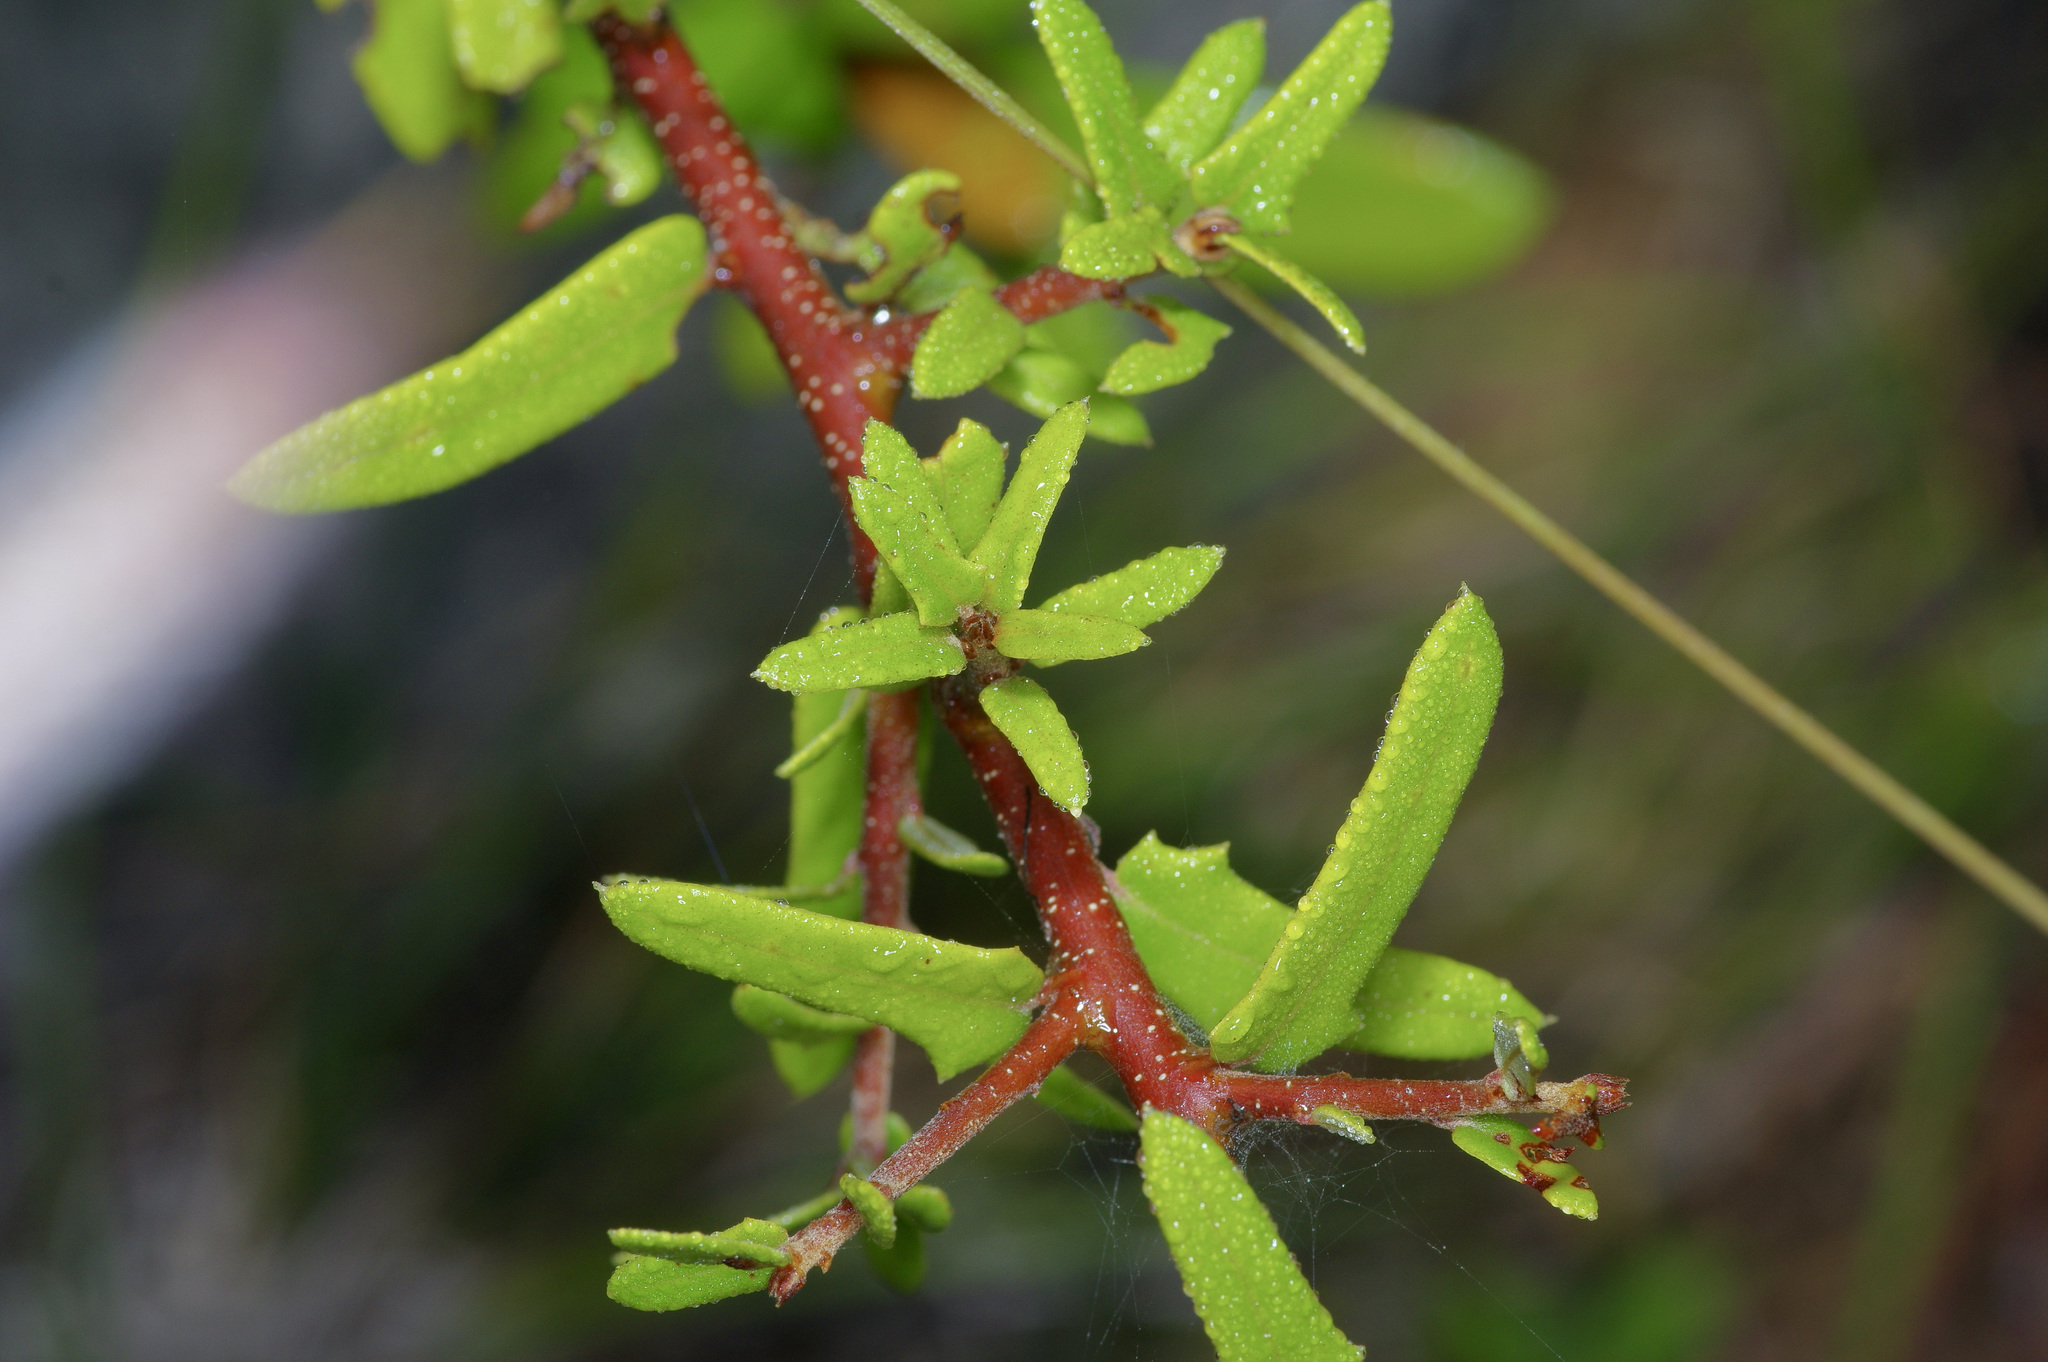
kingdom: Plantae
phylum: Tracheophyta
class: Magnoliopsida
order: Fagales
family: Fagaceae
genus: Quercus
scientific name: Quercus fusiformis
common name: Texas live oak
